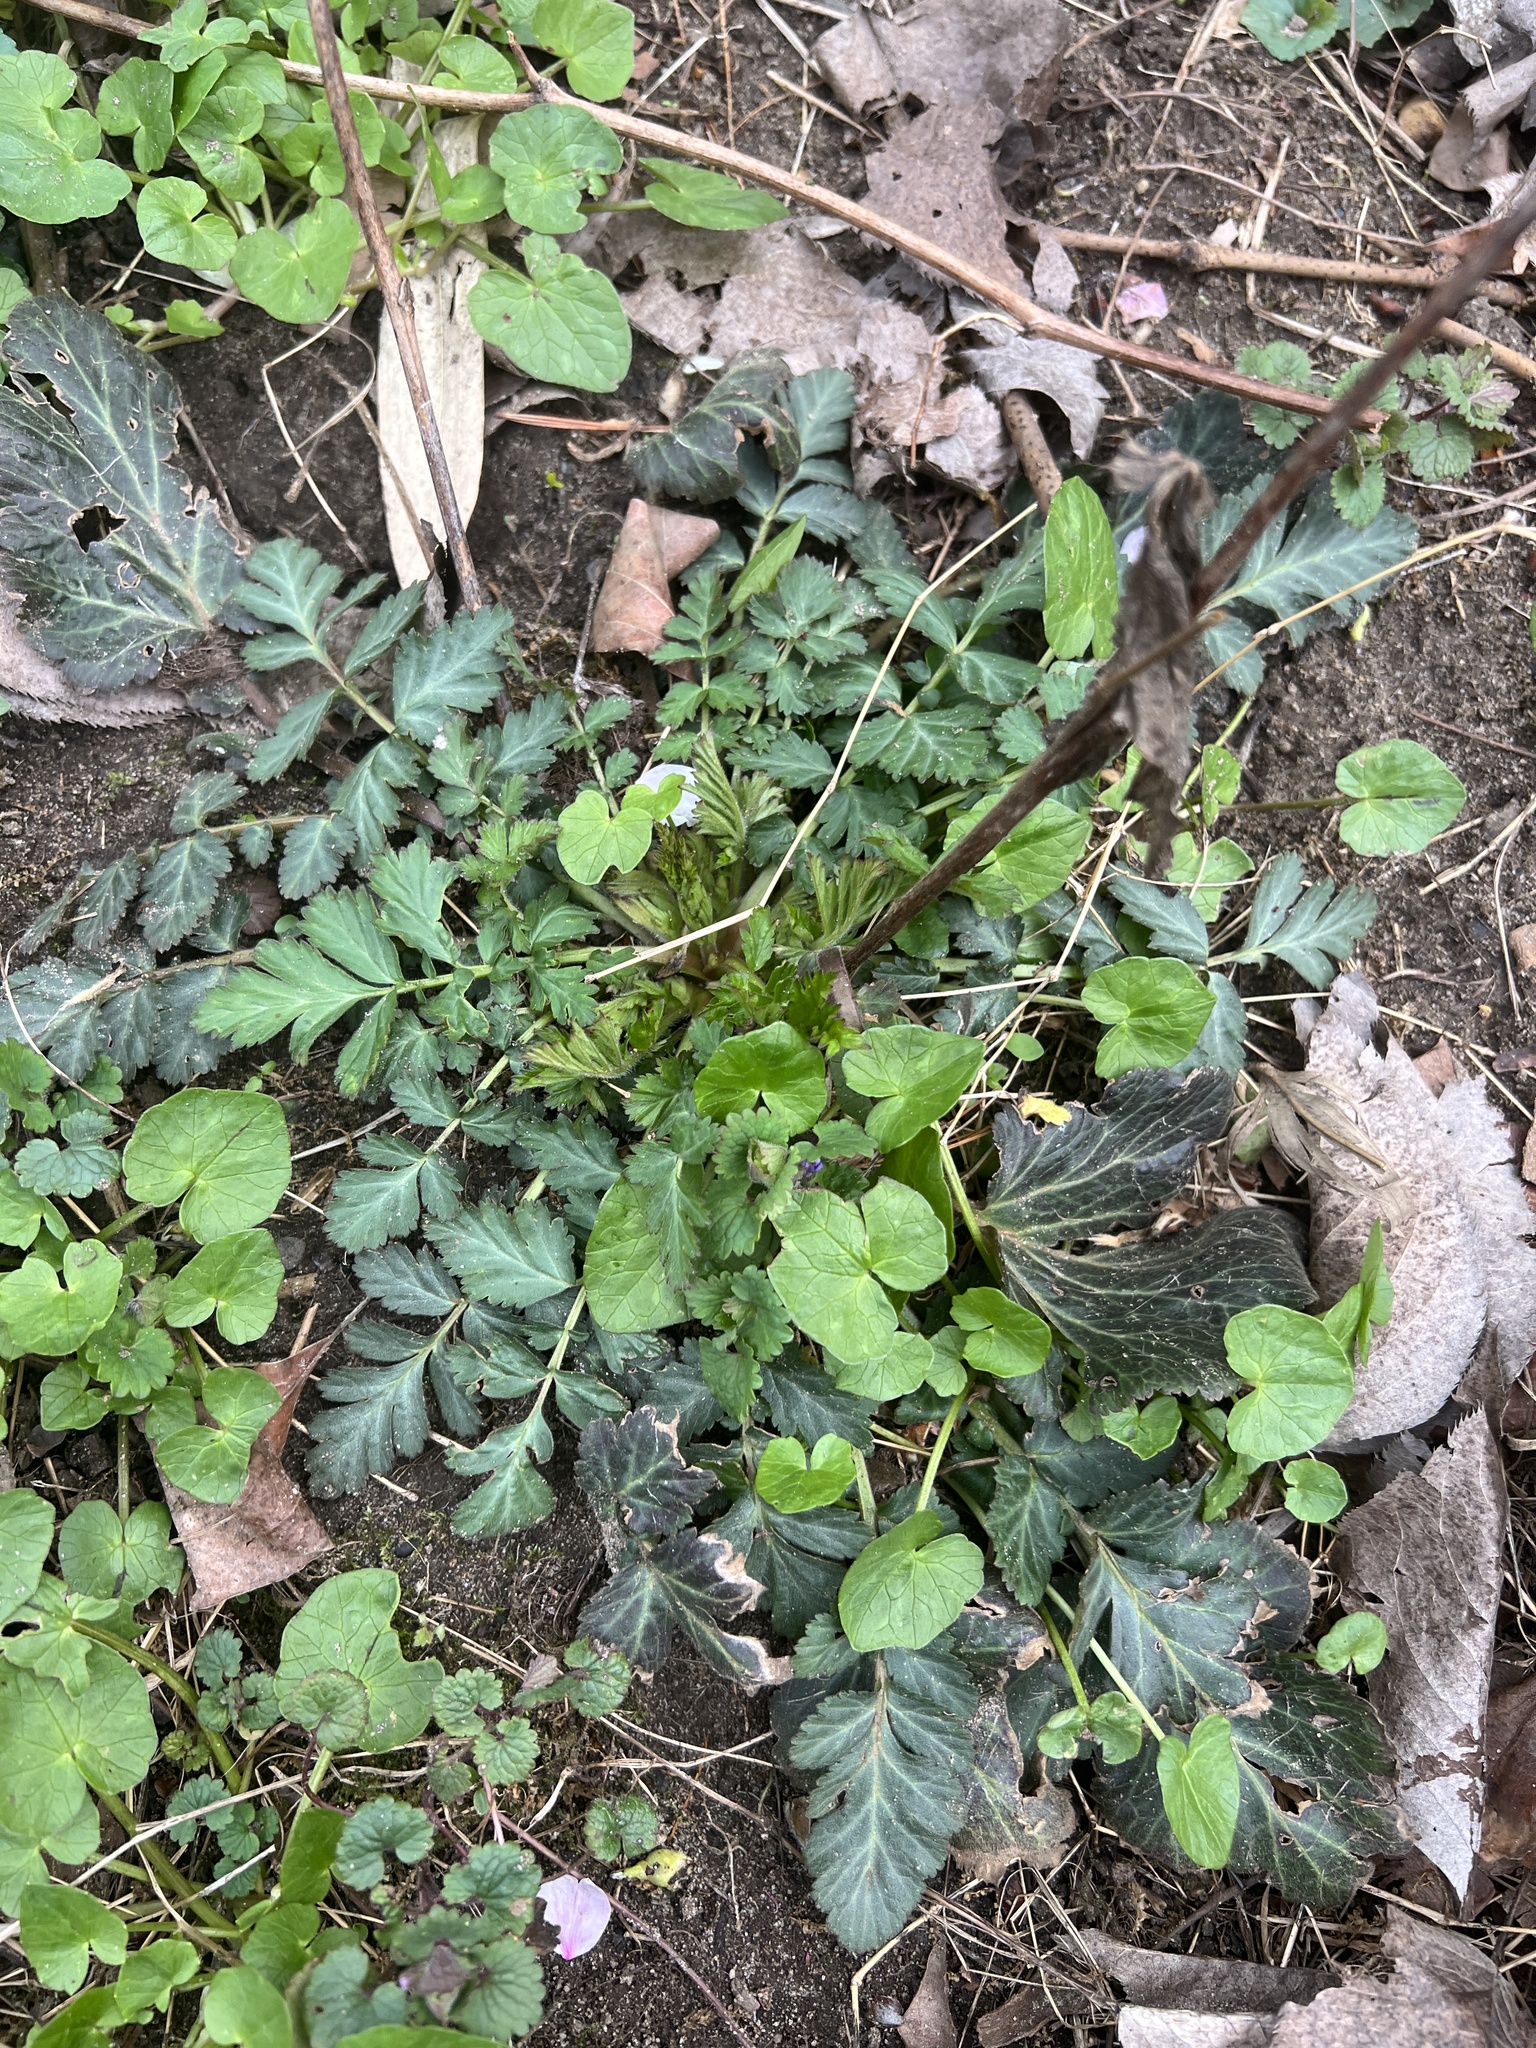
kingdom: Plantae
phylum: Tracheophyta
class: Magnoliopsida
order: Rosales
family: Rosaceae
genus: Geum
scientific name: Geum canadense
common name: White avens
